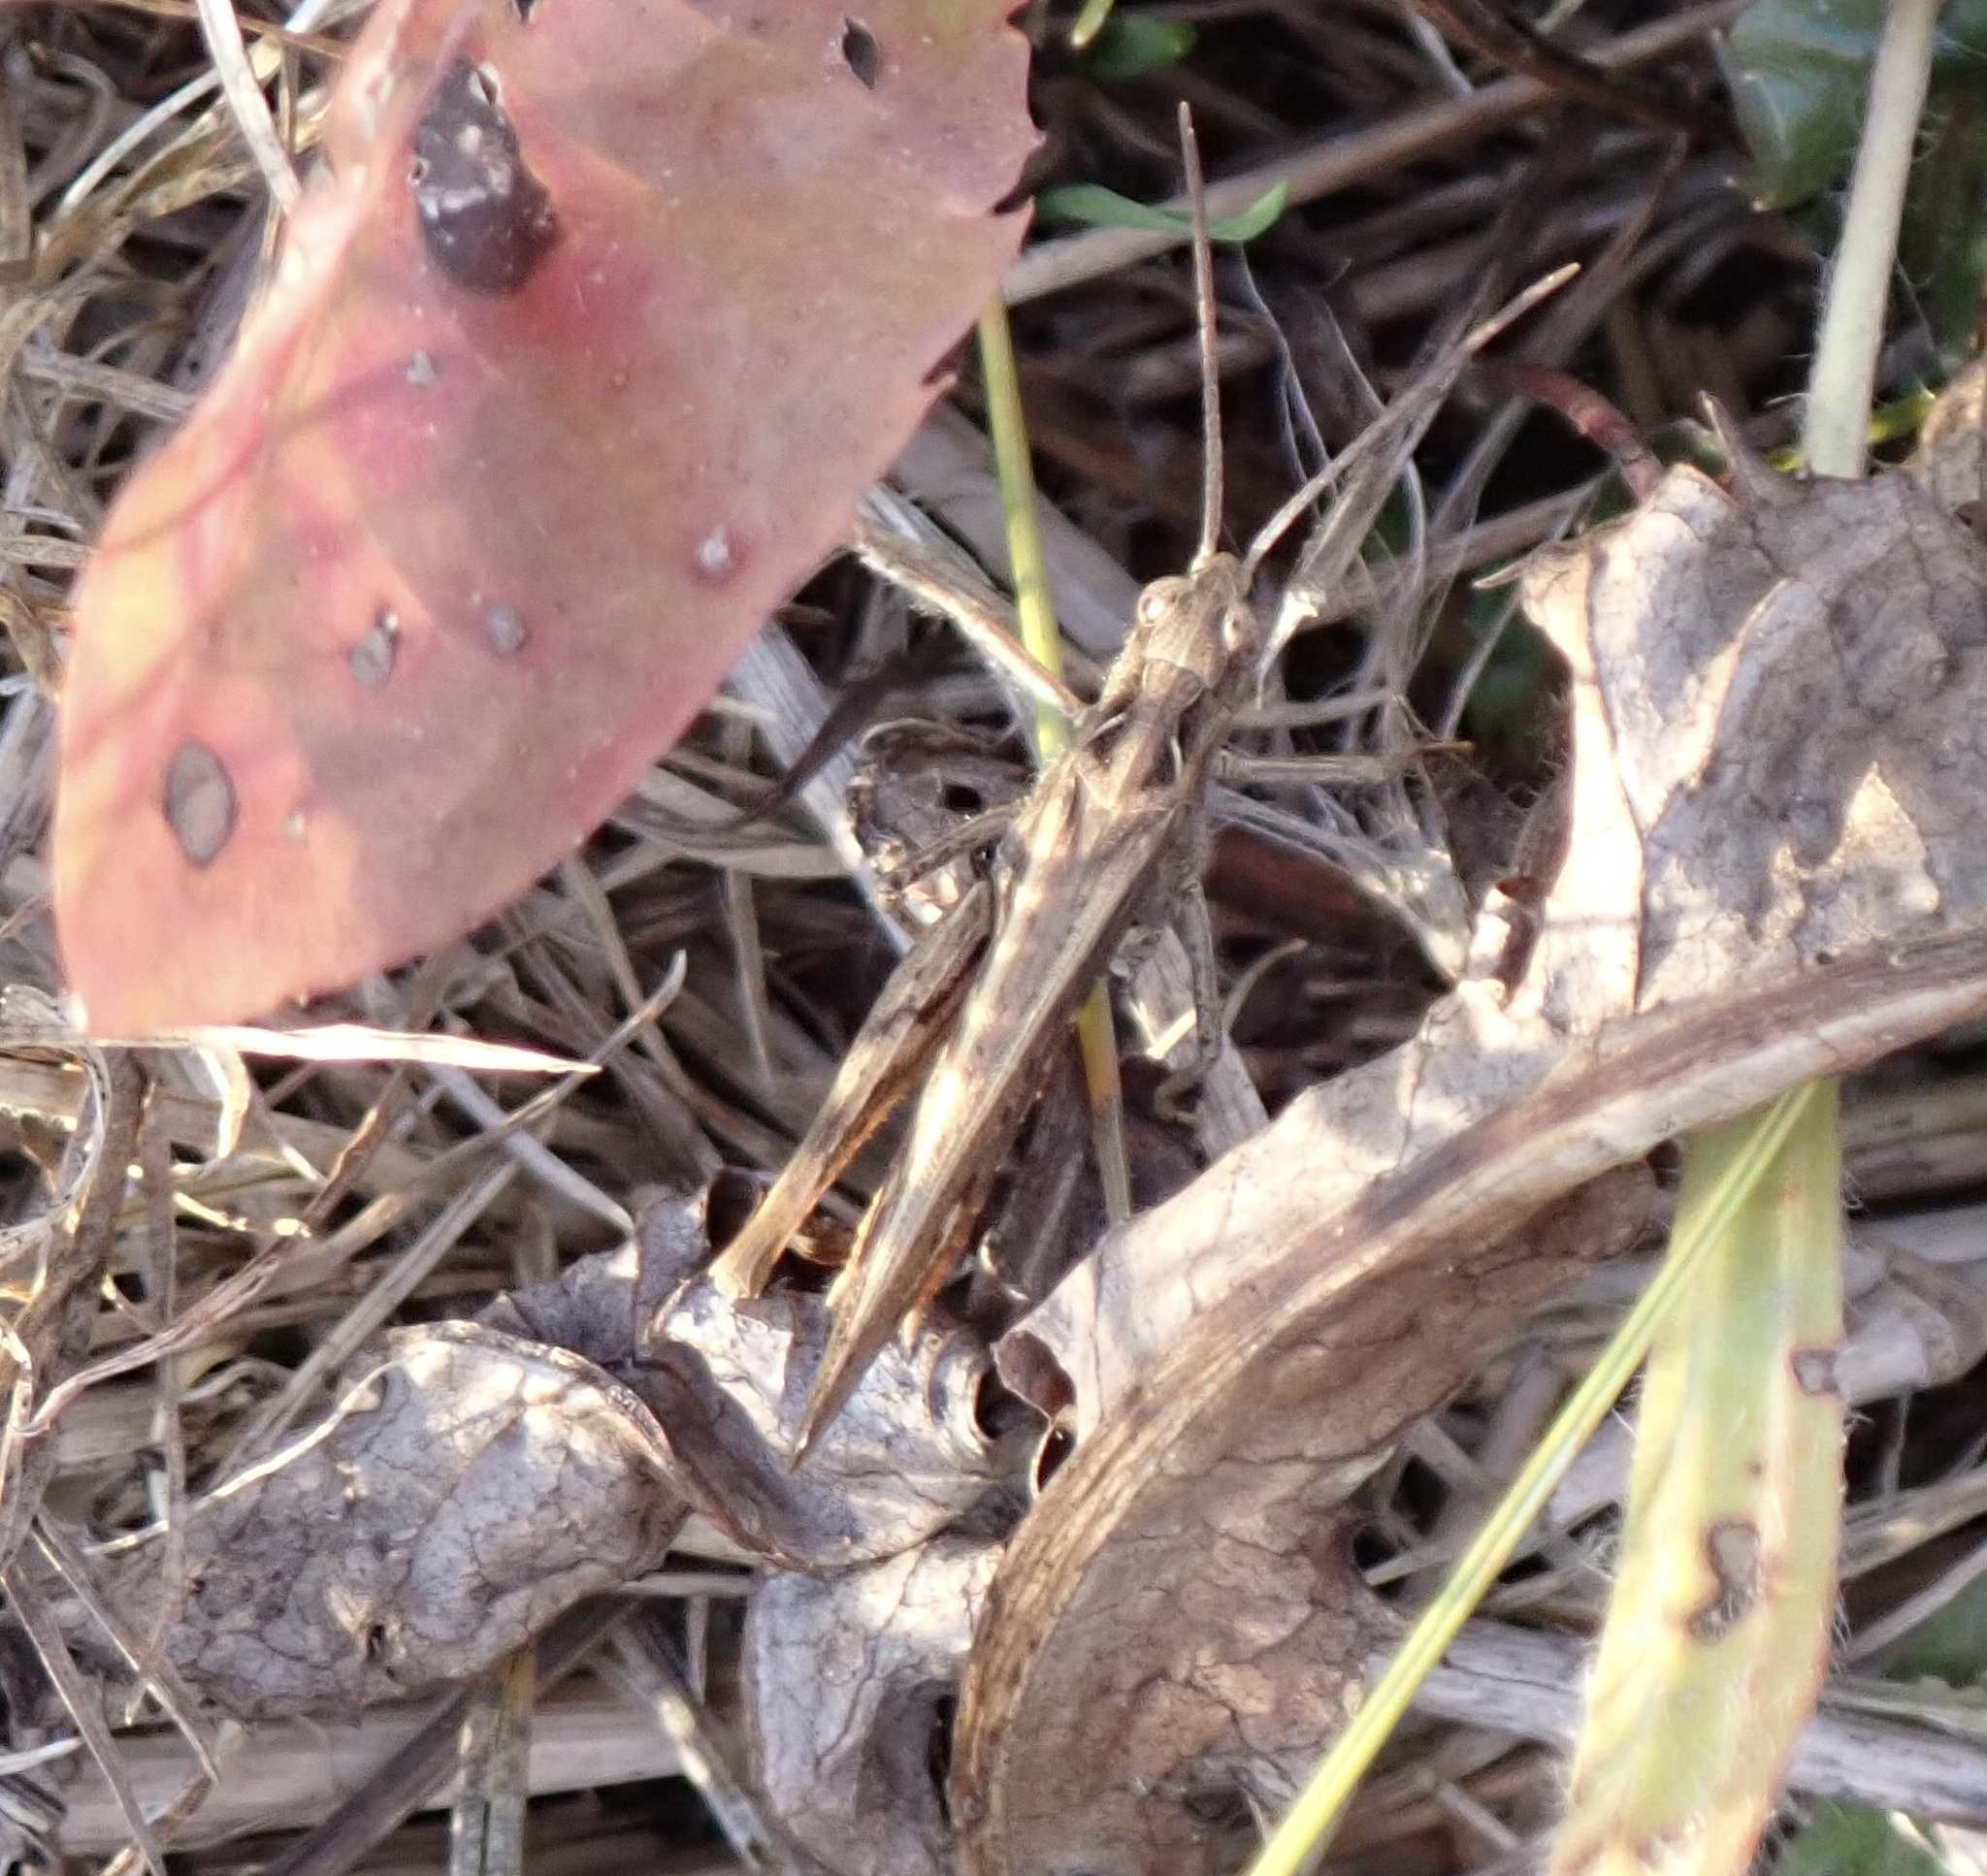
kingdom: Animalia
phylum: Arthropoda
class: Insecta
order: Orthoptera
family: Acrididae
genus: Chorthippus
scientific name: Chorthippus brunneus
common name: Field grasshopper
